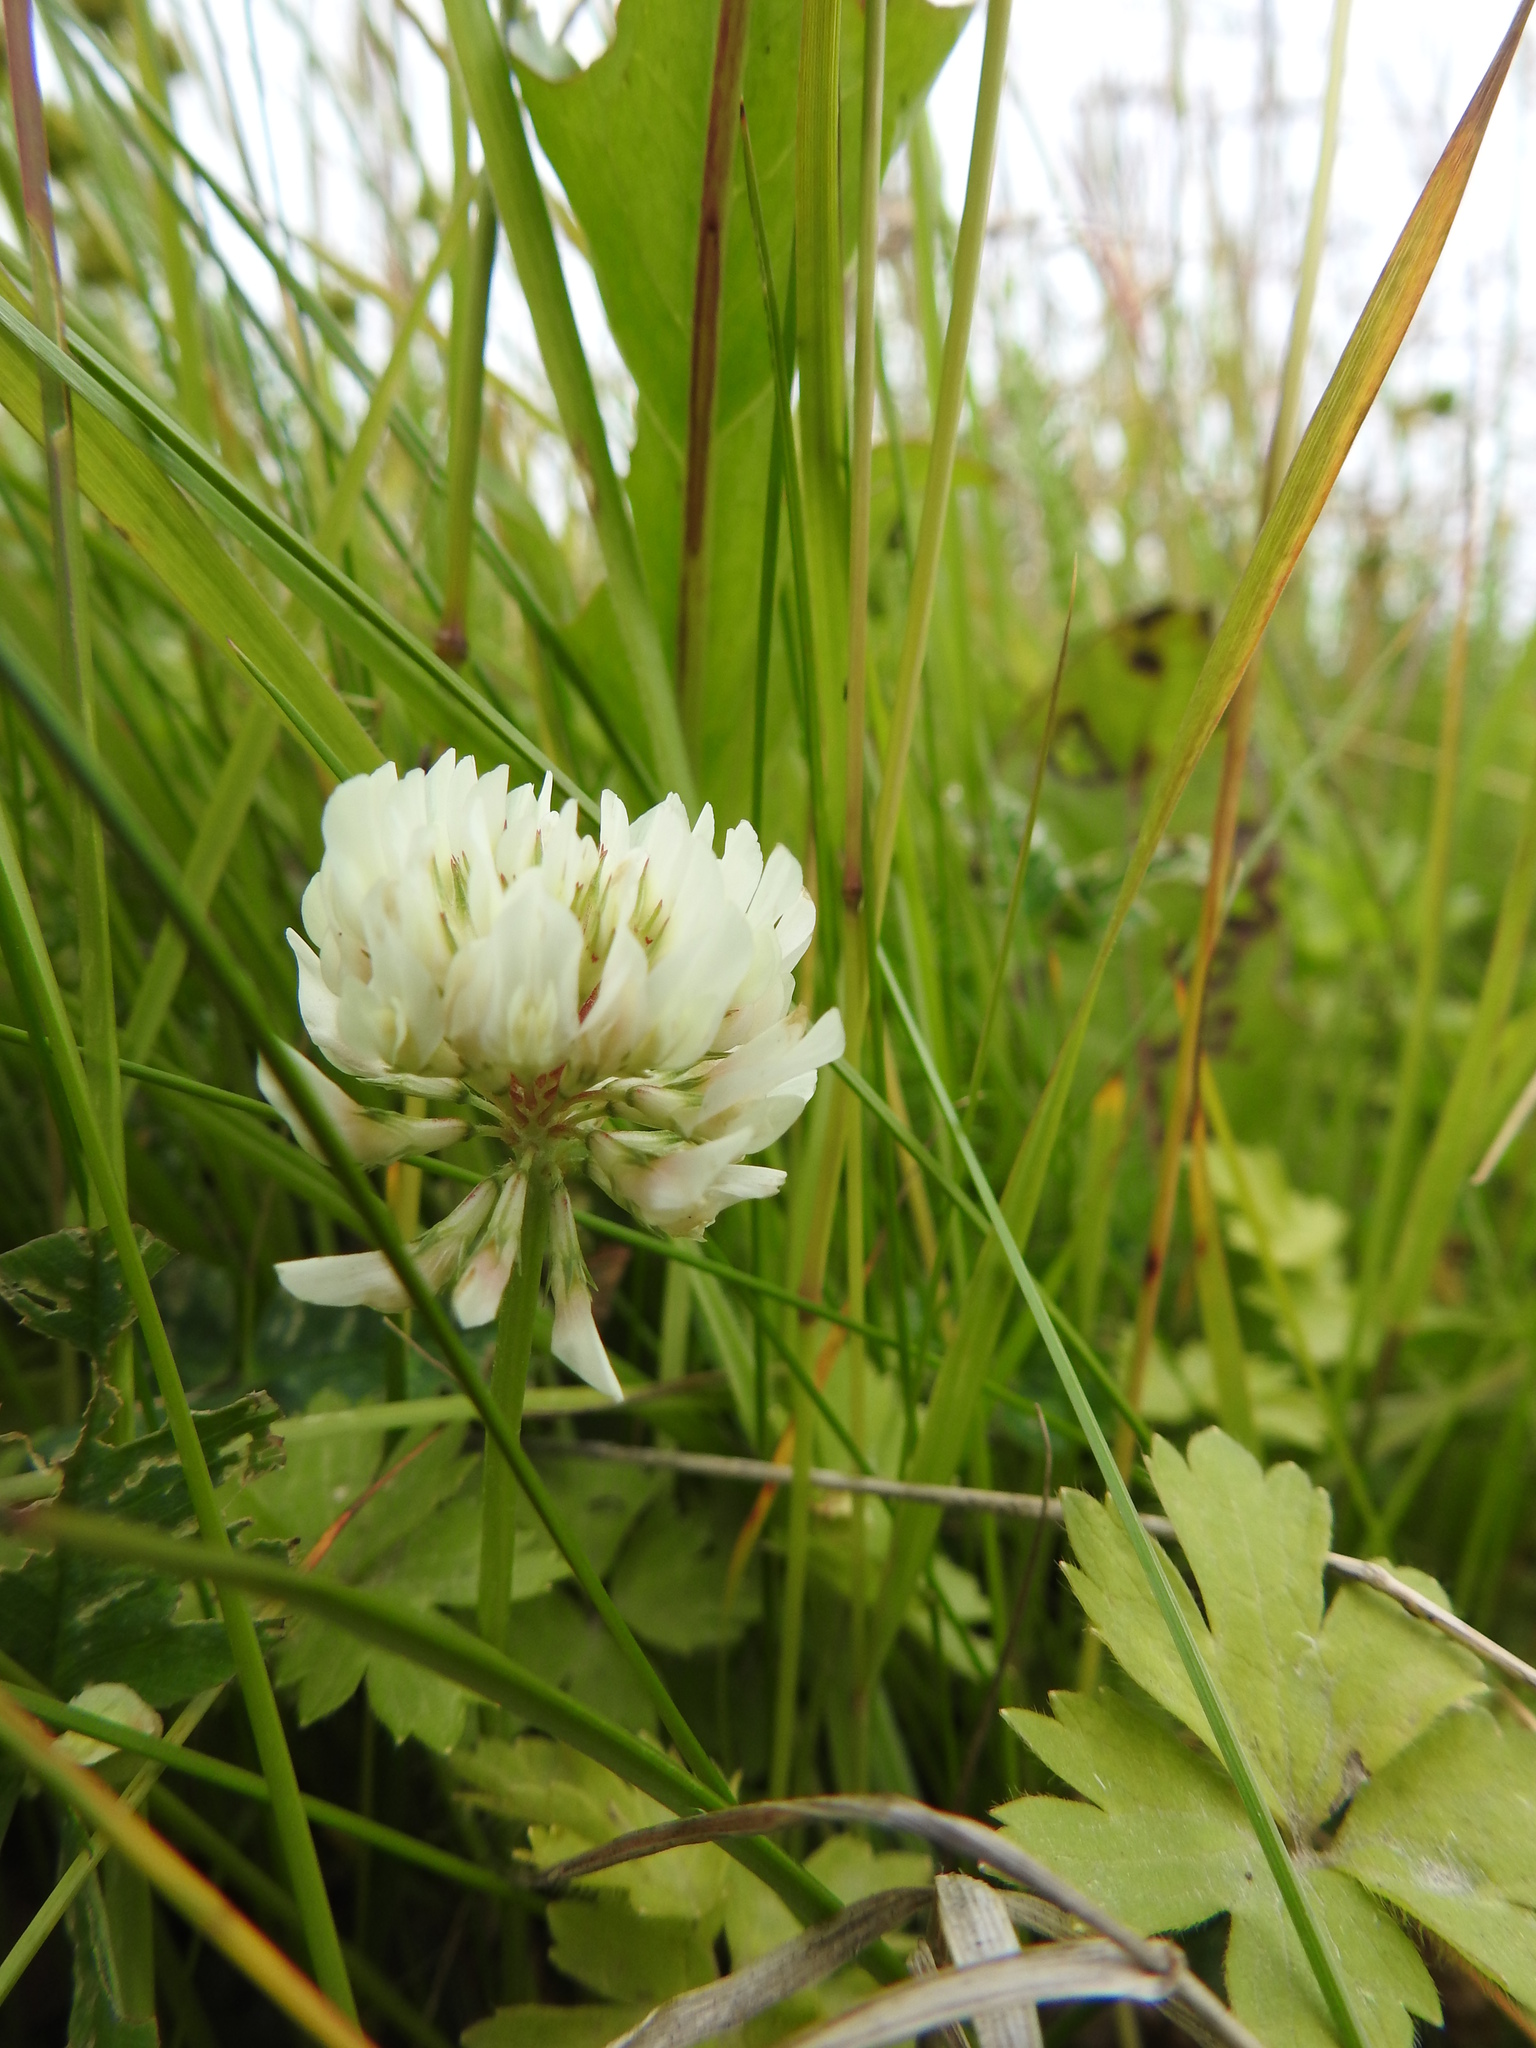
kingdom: Plantae
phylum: Tracheophyta
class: Magnoliopsida
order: Fabales
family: Fabaceae
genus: Trifolium
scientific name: Trifolium repens
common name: White clover
